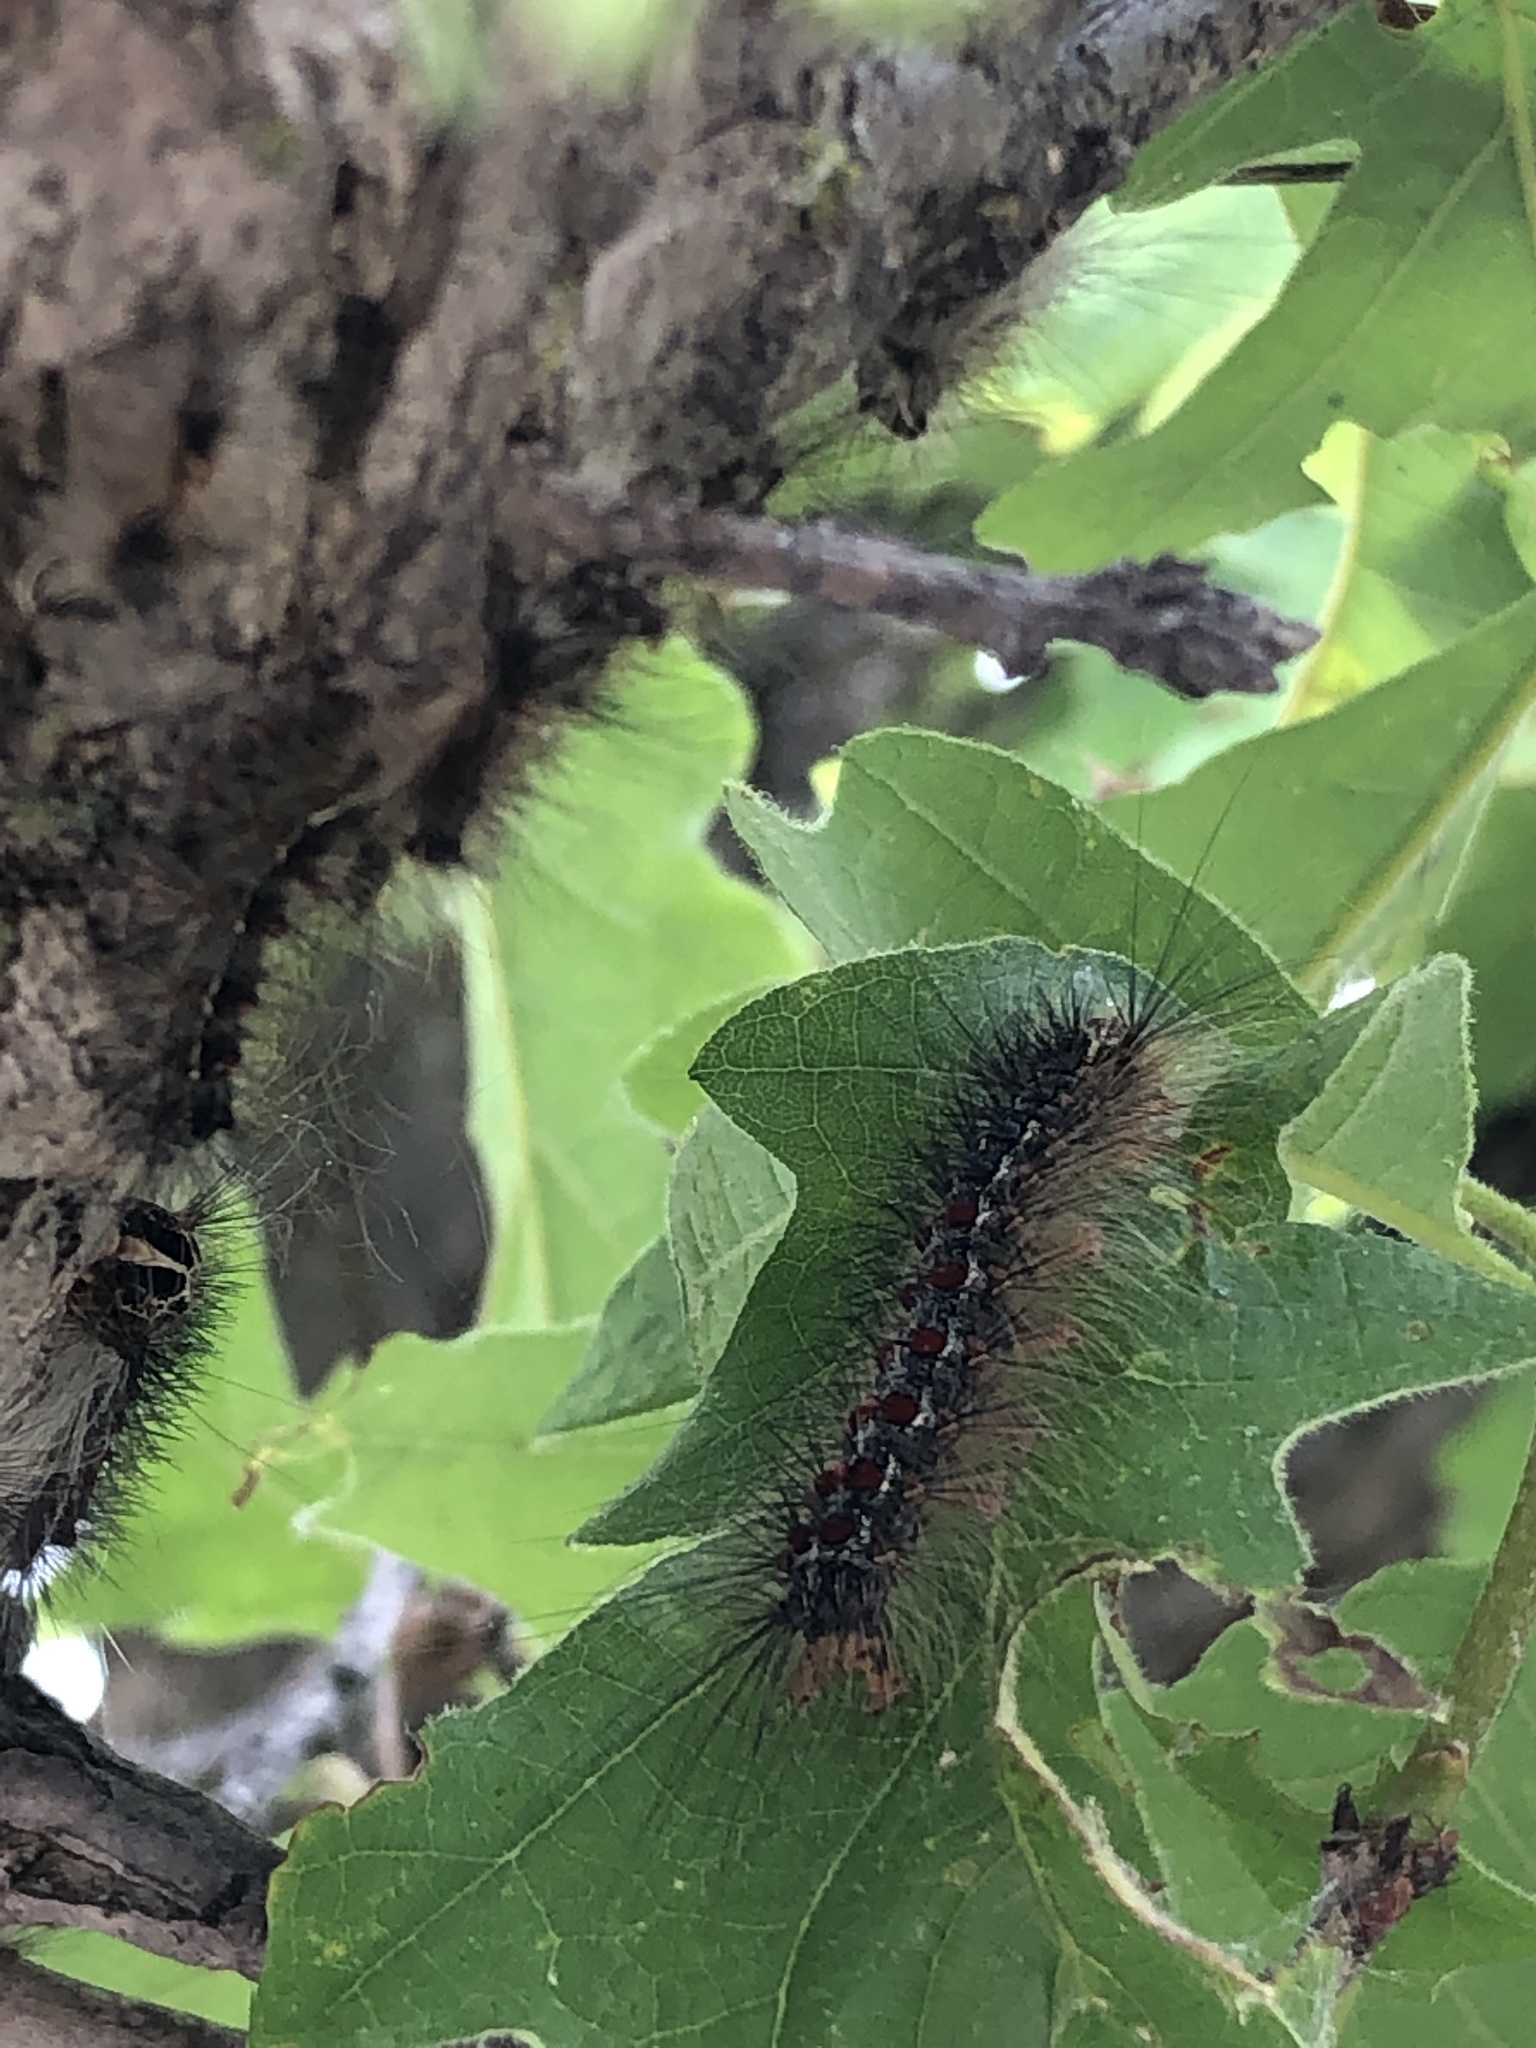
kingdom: Animalia
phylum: Arthropoda
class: Insecta
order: Lepidoptera
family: Erebidae
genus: Lymantria
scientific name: Lymantria dispar
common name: Gypsy moth
